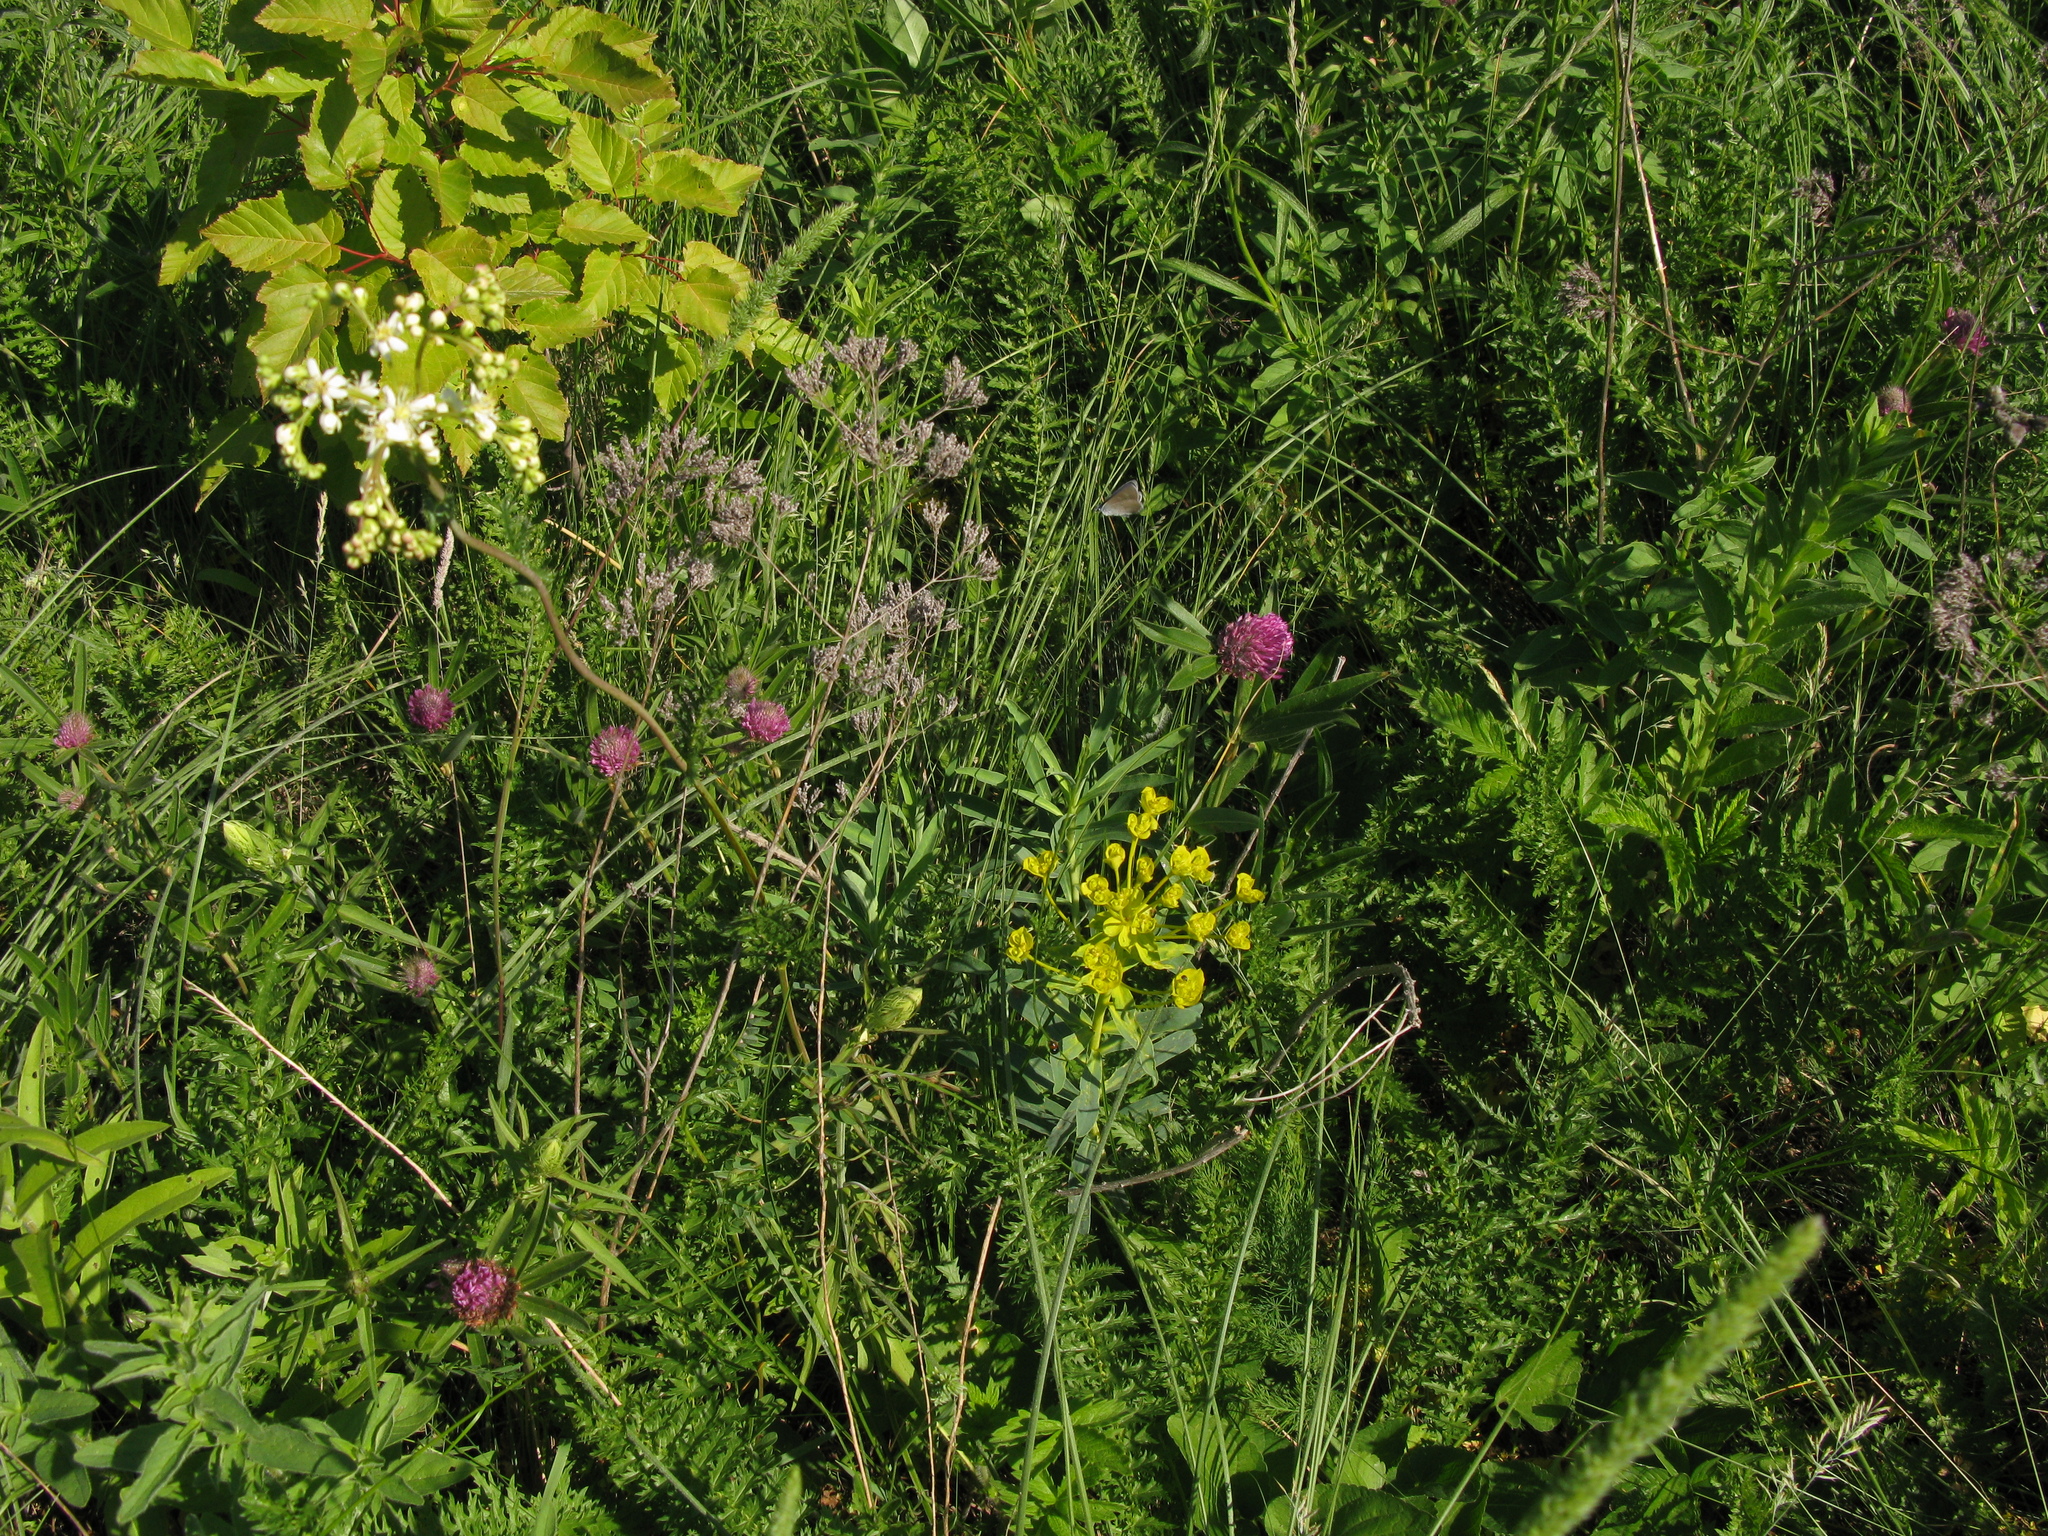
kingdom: Plantae
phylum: Tracheophyta
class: Magnoliopsida
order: Fabales
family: Fabaceae
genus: Trifolium
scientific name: Trifolium alpestre
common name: Owl-head clover
